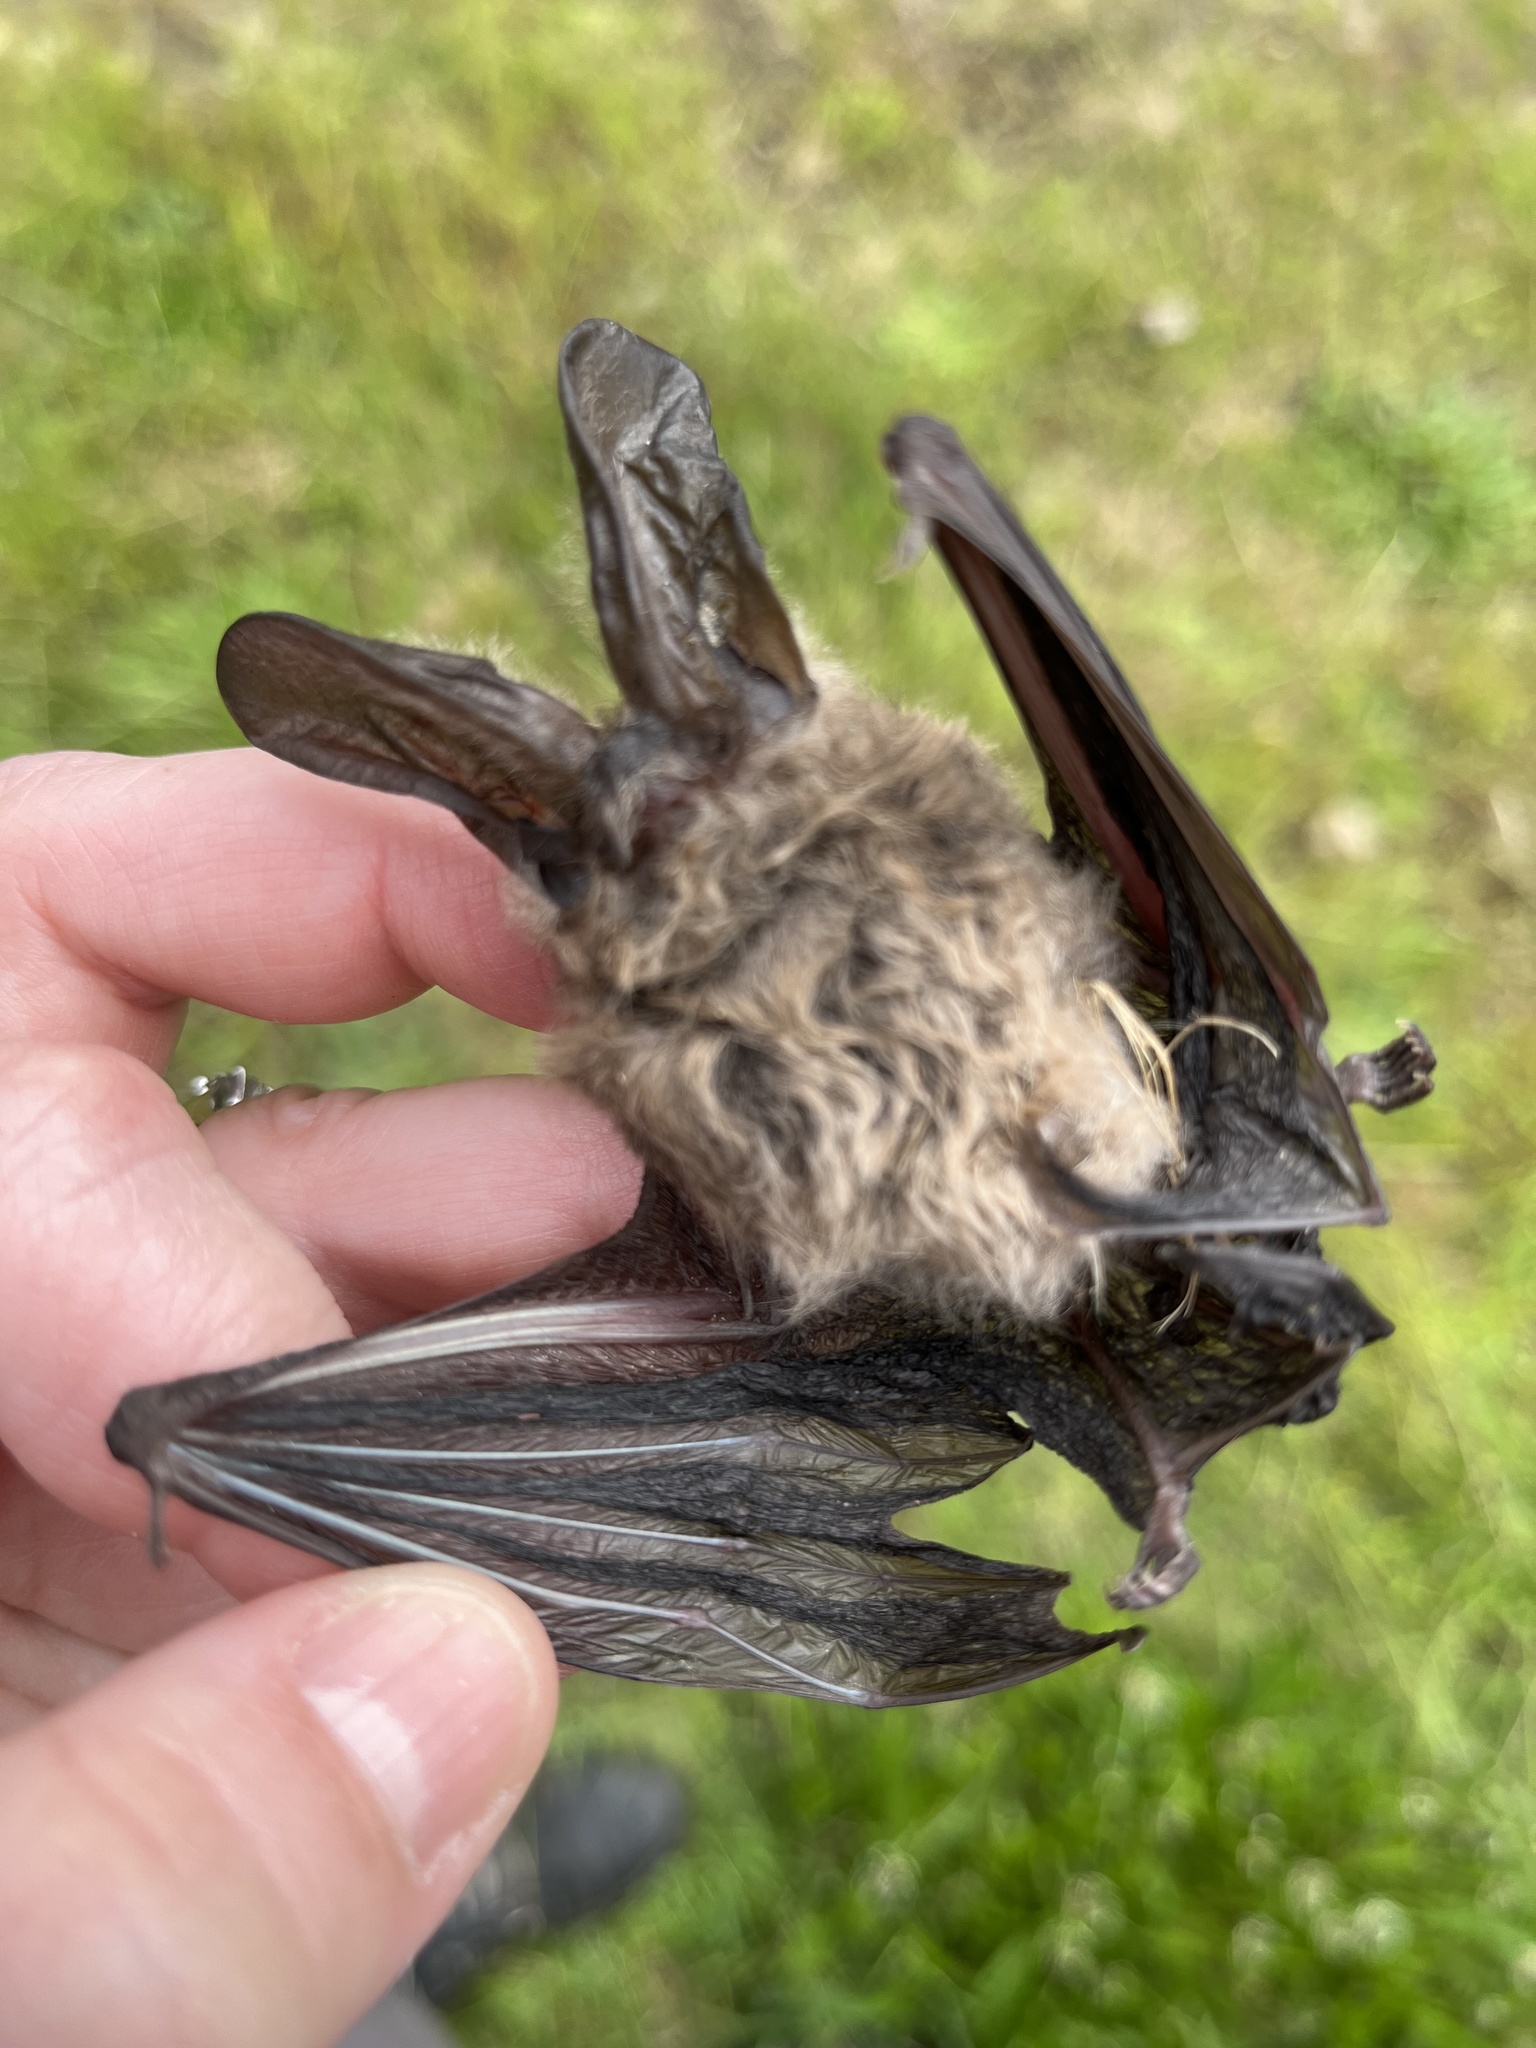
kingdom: Animalia
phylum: Chordata
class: Mammalia
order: Chiroptera
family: Vespertilionidae
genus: Corynorhinus
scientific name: Corynorhinus townsendii
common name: Townsend's big-eared bat
